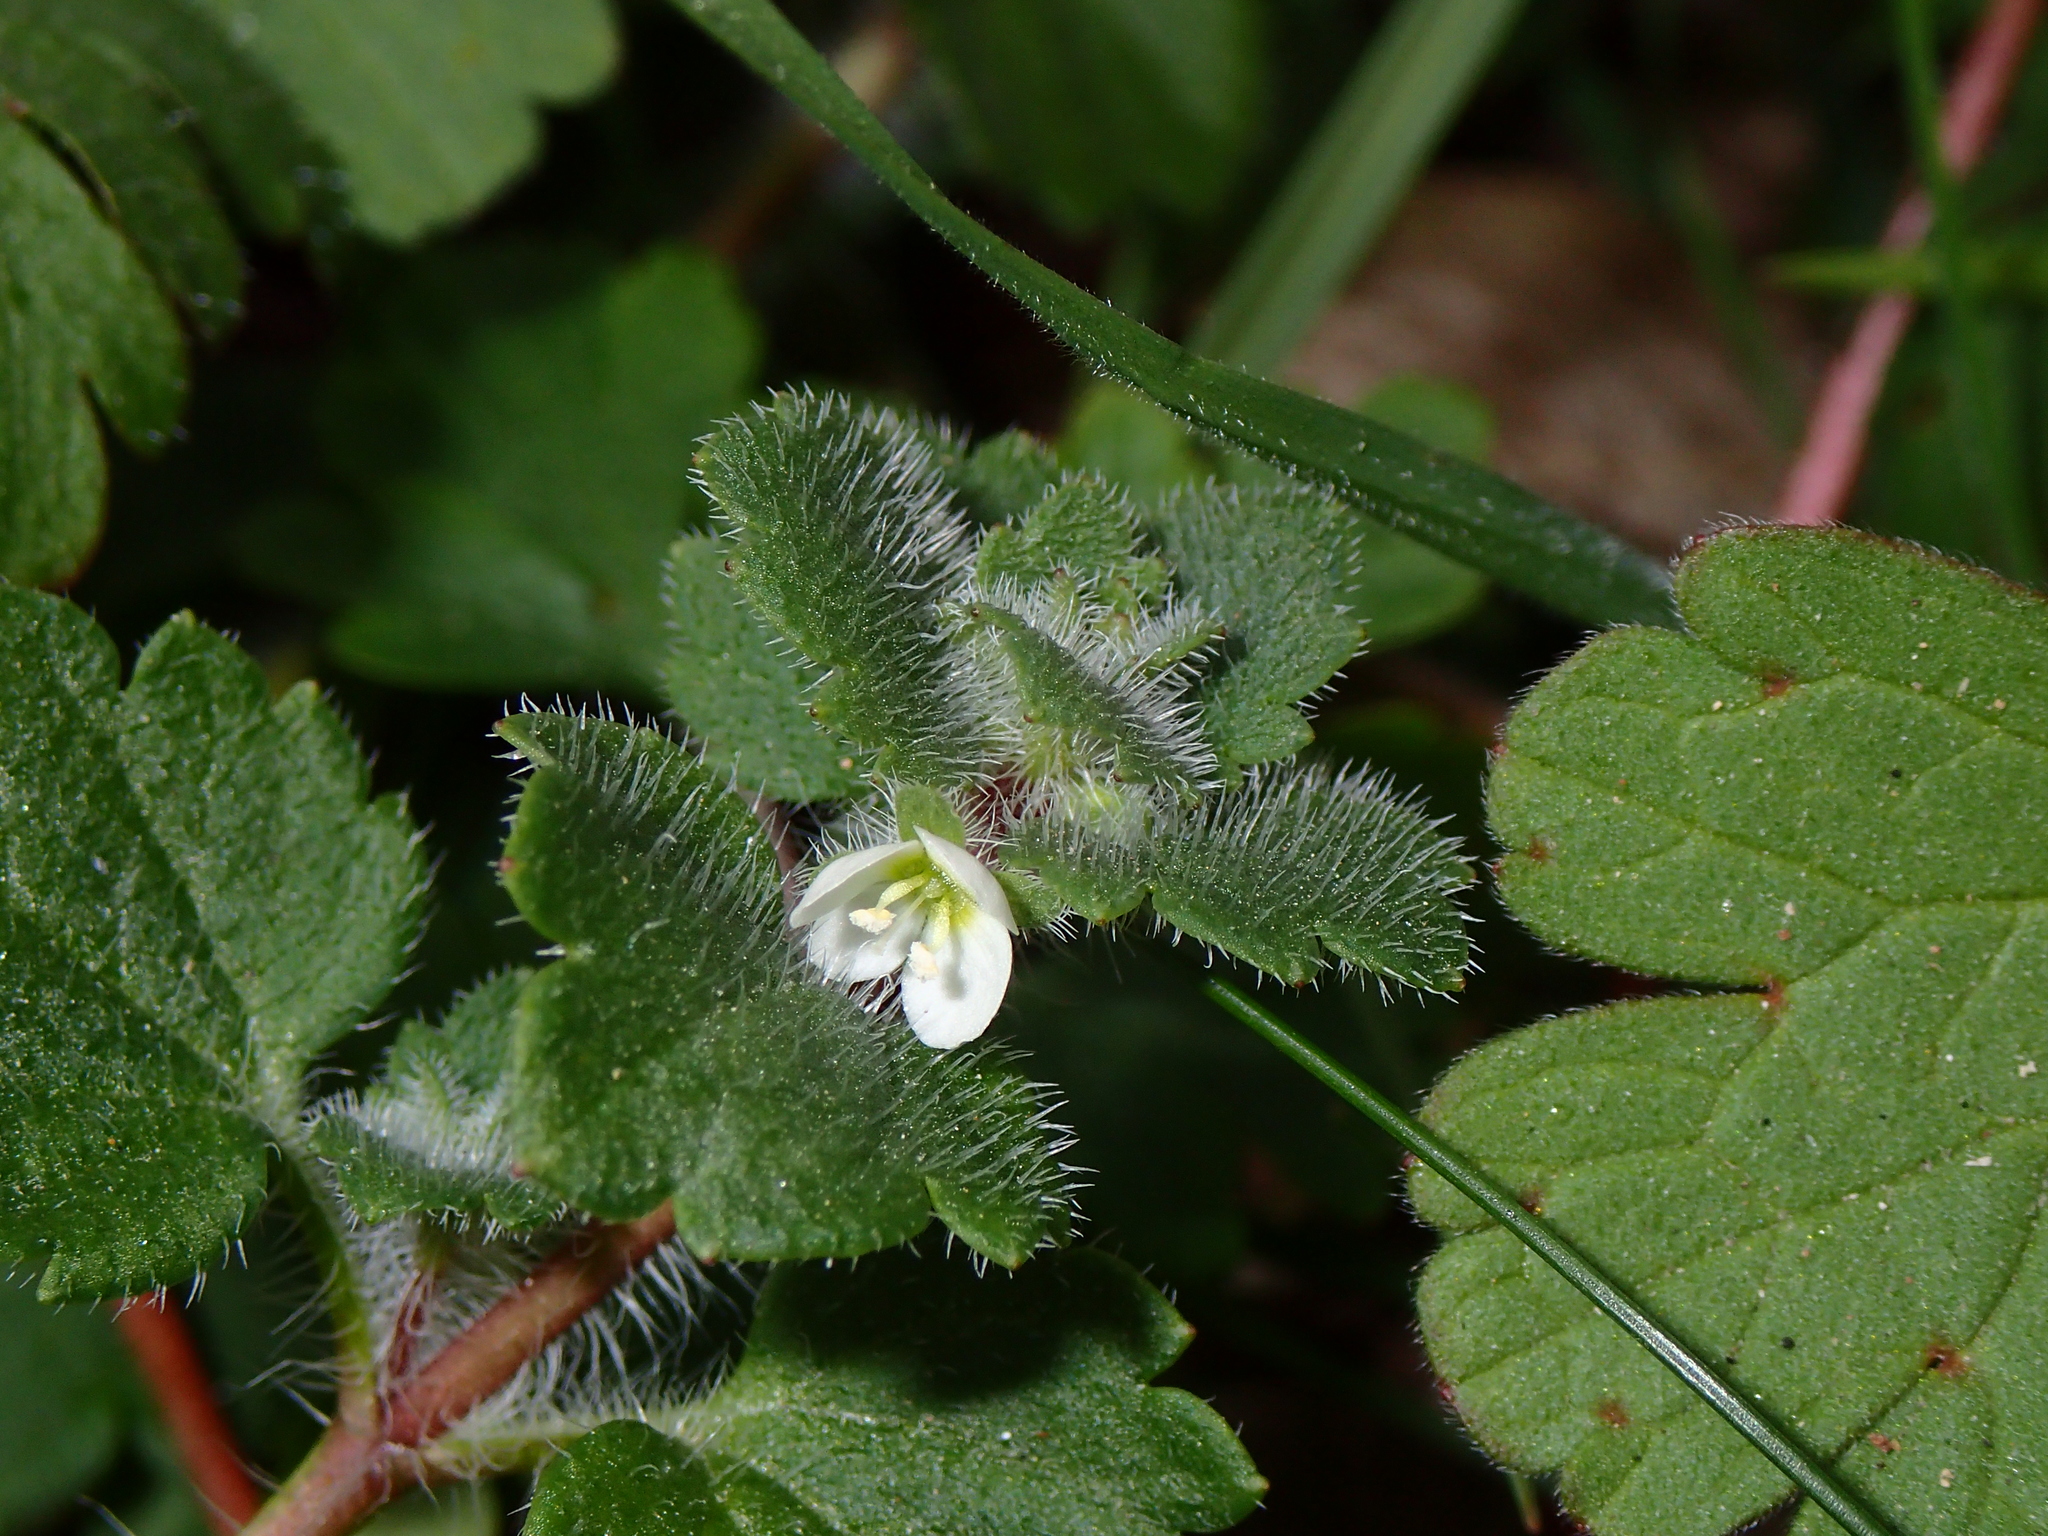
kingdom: Plantae
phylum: Tracheophyta
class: Magnoliopsida
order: Lamiales
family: Plantaginaceae
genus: Veronica
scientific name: Veronica cymbalaria
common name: Pale speedwell
